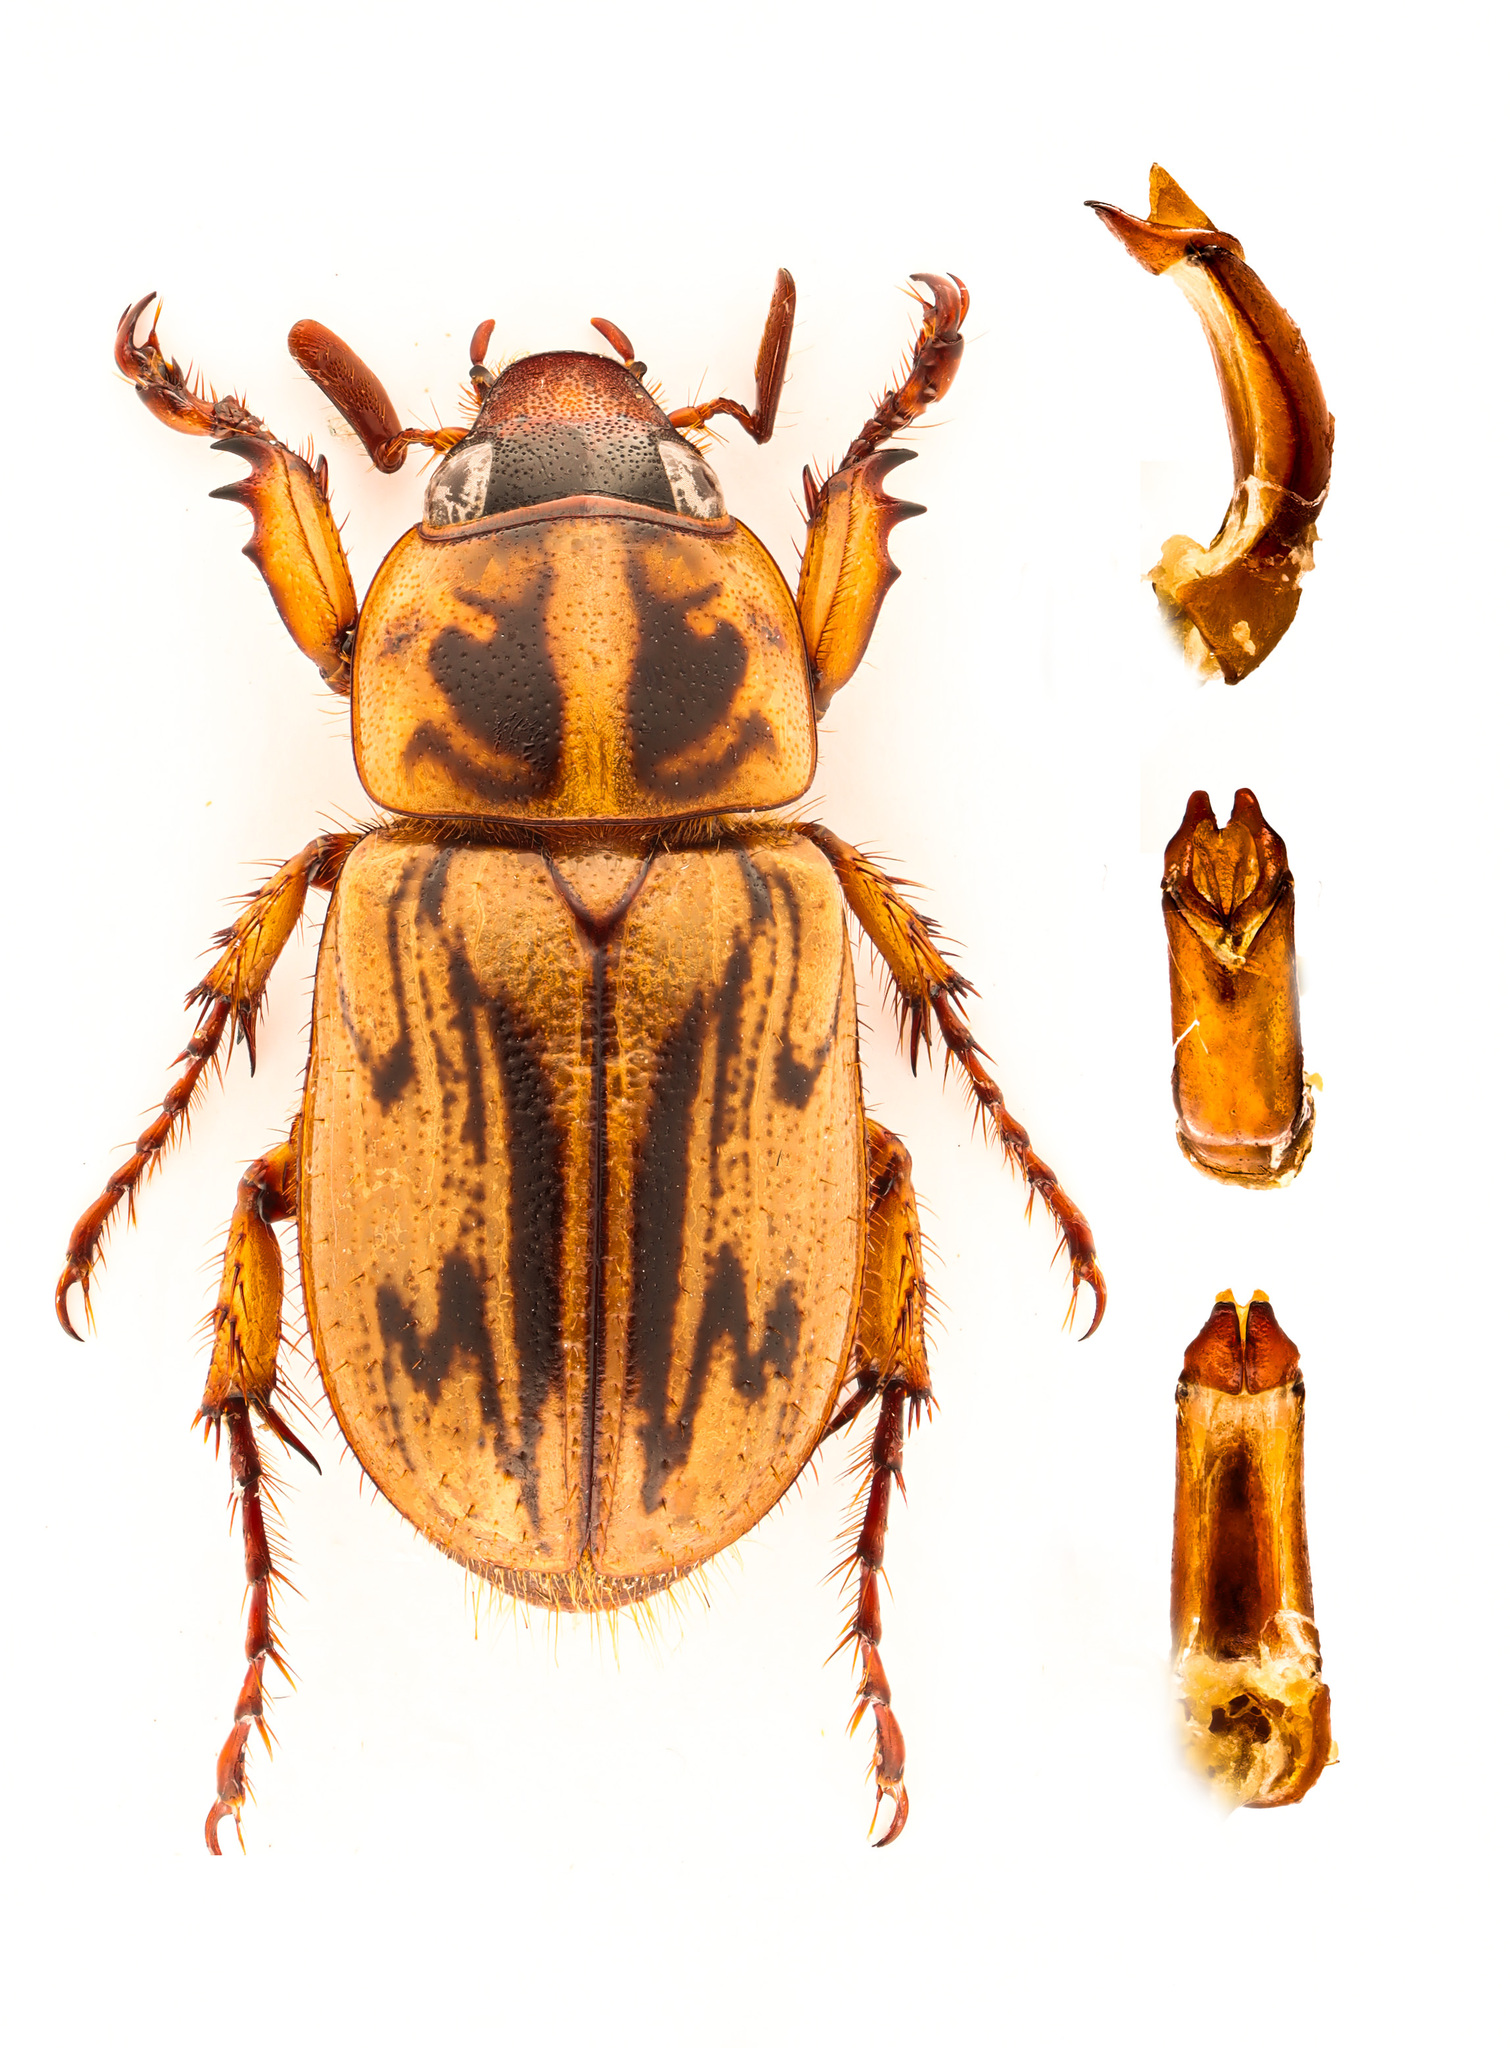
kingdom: Animalia
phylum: Arthropoda
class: Insecta
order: Coleoptera
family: Scarabaeidae
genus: Cyclocephala
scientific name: Cyclocephala notata
